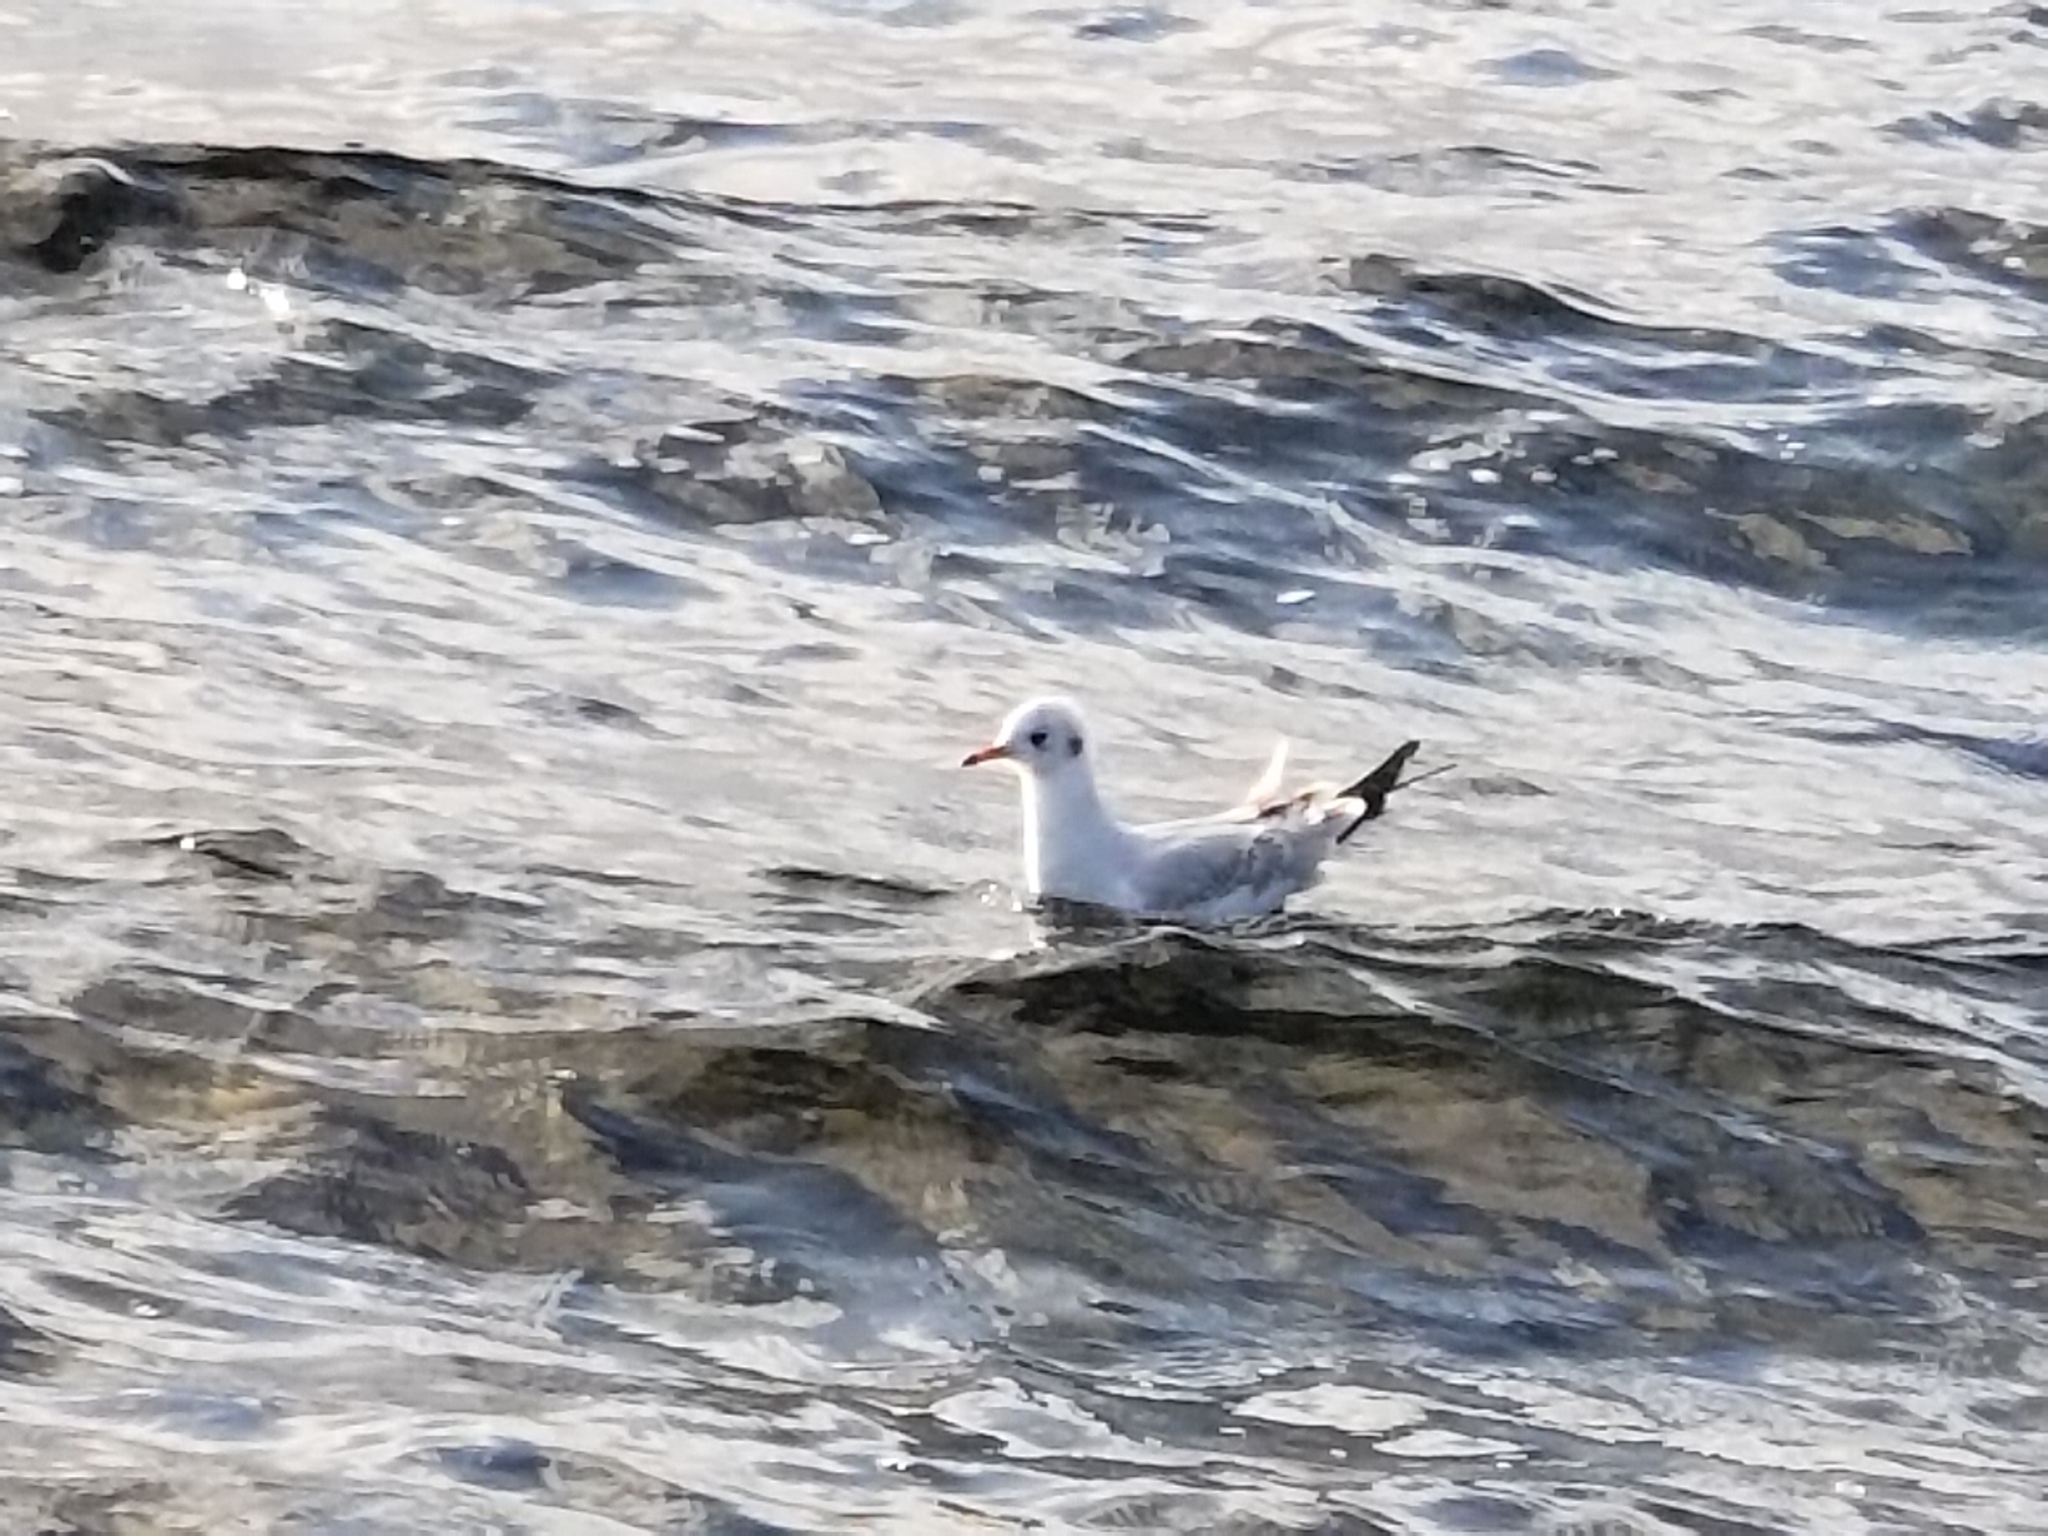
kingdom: Animalia
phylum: Chordata
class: Aves
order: Charadriiformes
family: Laridae
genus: Chroicocephalus
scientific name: Chroicocephalus ridibundus
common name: Black-headed gull
